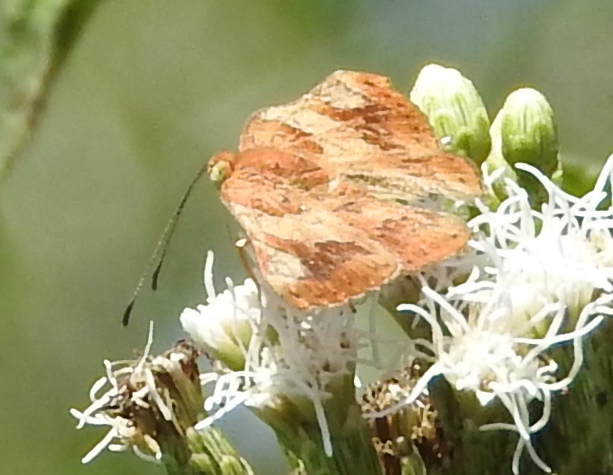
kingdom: Animalia
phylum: Arthropoda
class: Insecta
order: Lepidoptera
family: Riodinidae
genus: Curvie
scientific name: Curvie emesia
